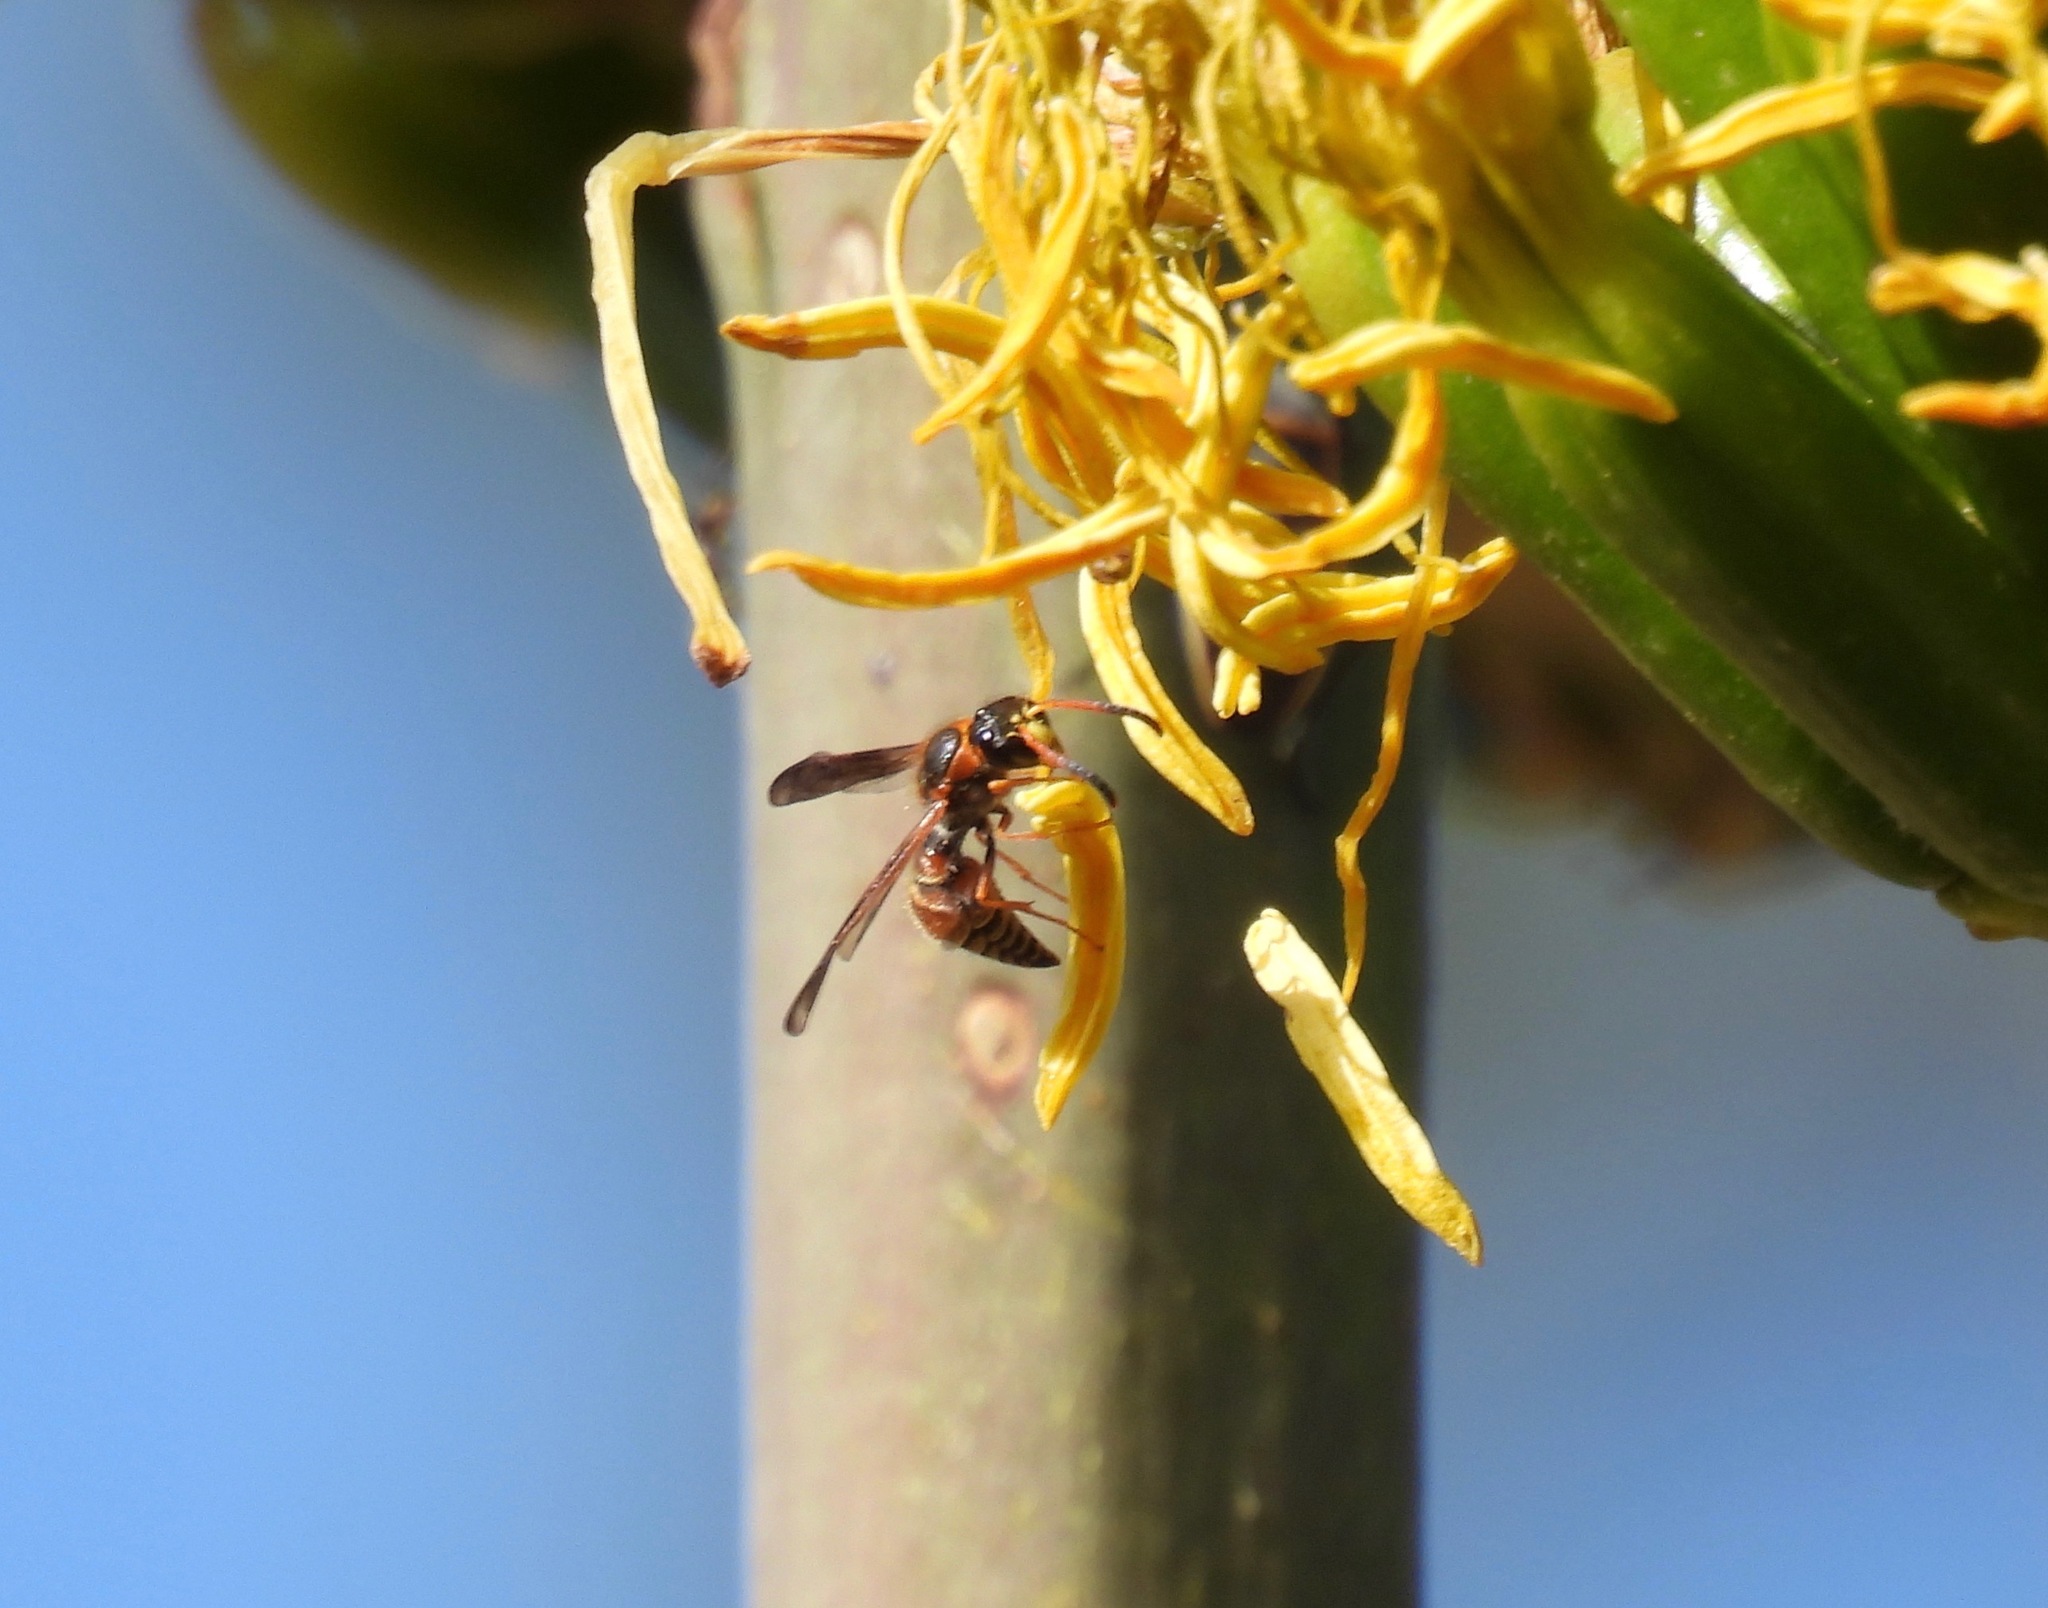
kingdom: Animalia
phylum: Arthropoda
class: Insecta
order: Hymenoptera
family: Vespidae
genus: Ancistrocerus
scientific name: Ancistrocerus tuberculocephalus
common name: Vespid wasp
